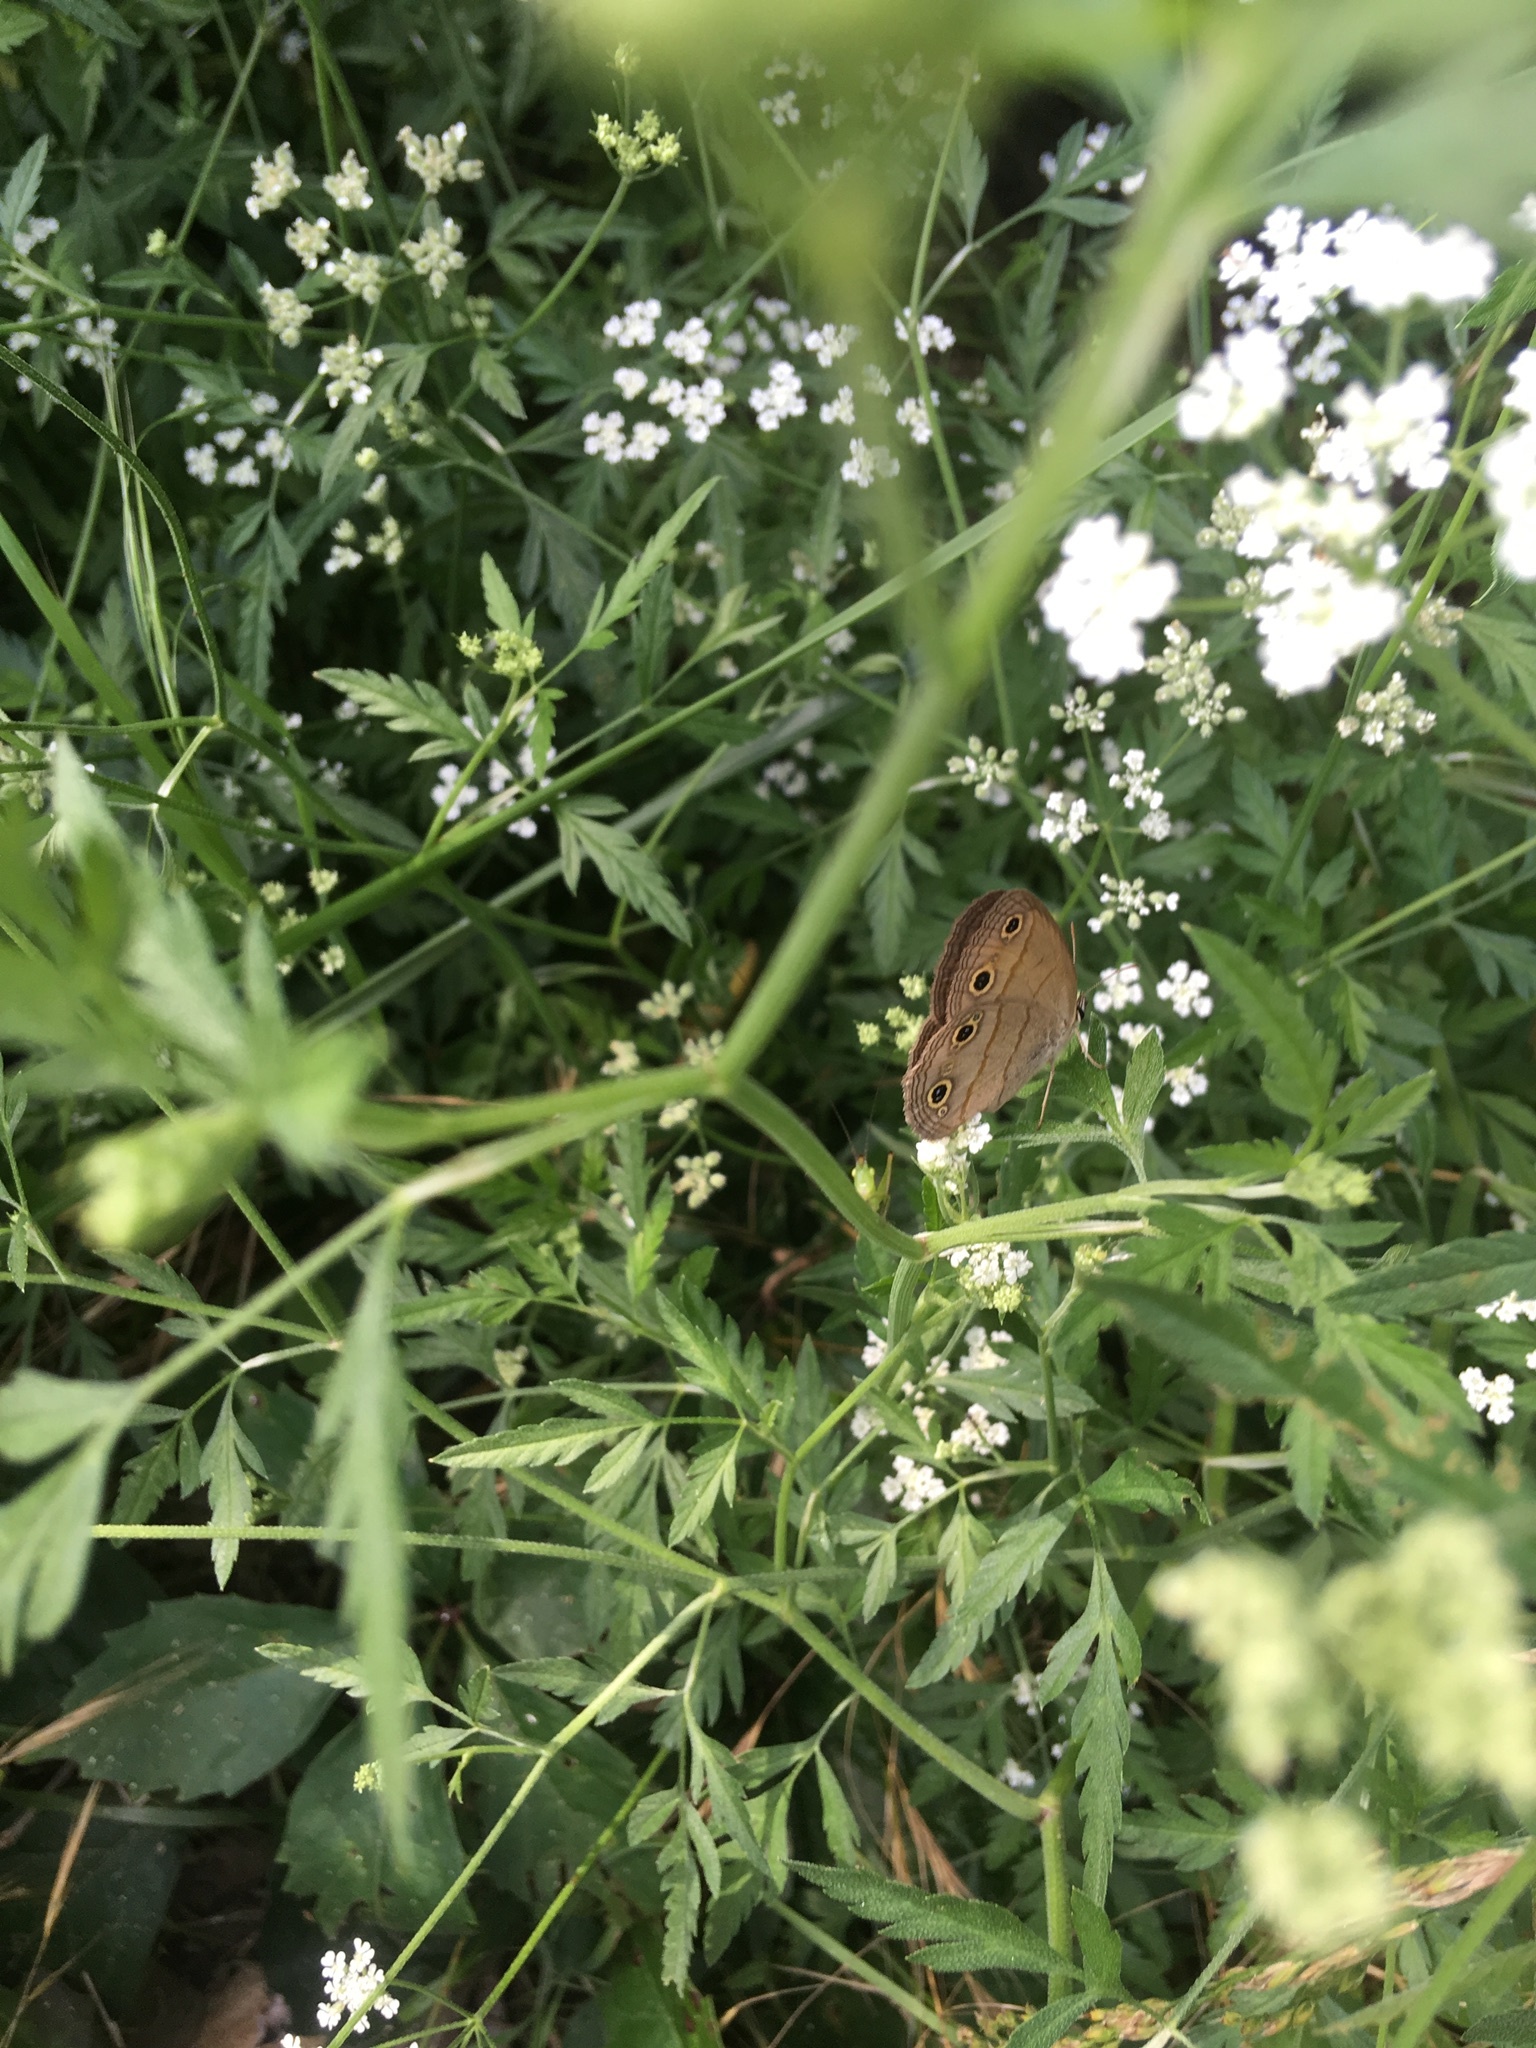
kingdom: Animalia
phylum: Arthropoda
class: Insecta
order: Lepidoptera
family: Nymphalidae
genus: Euptychia
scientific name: Euptychia cymela
